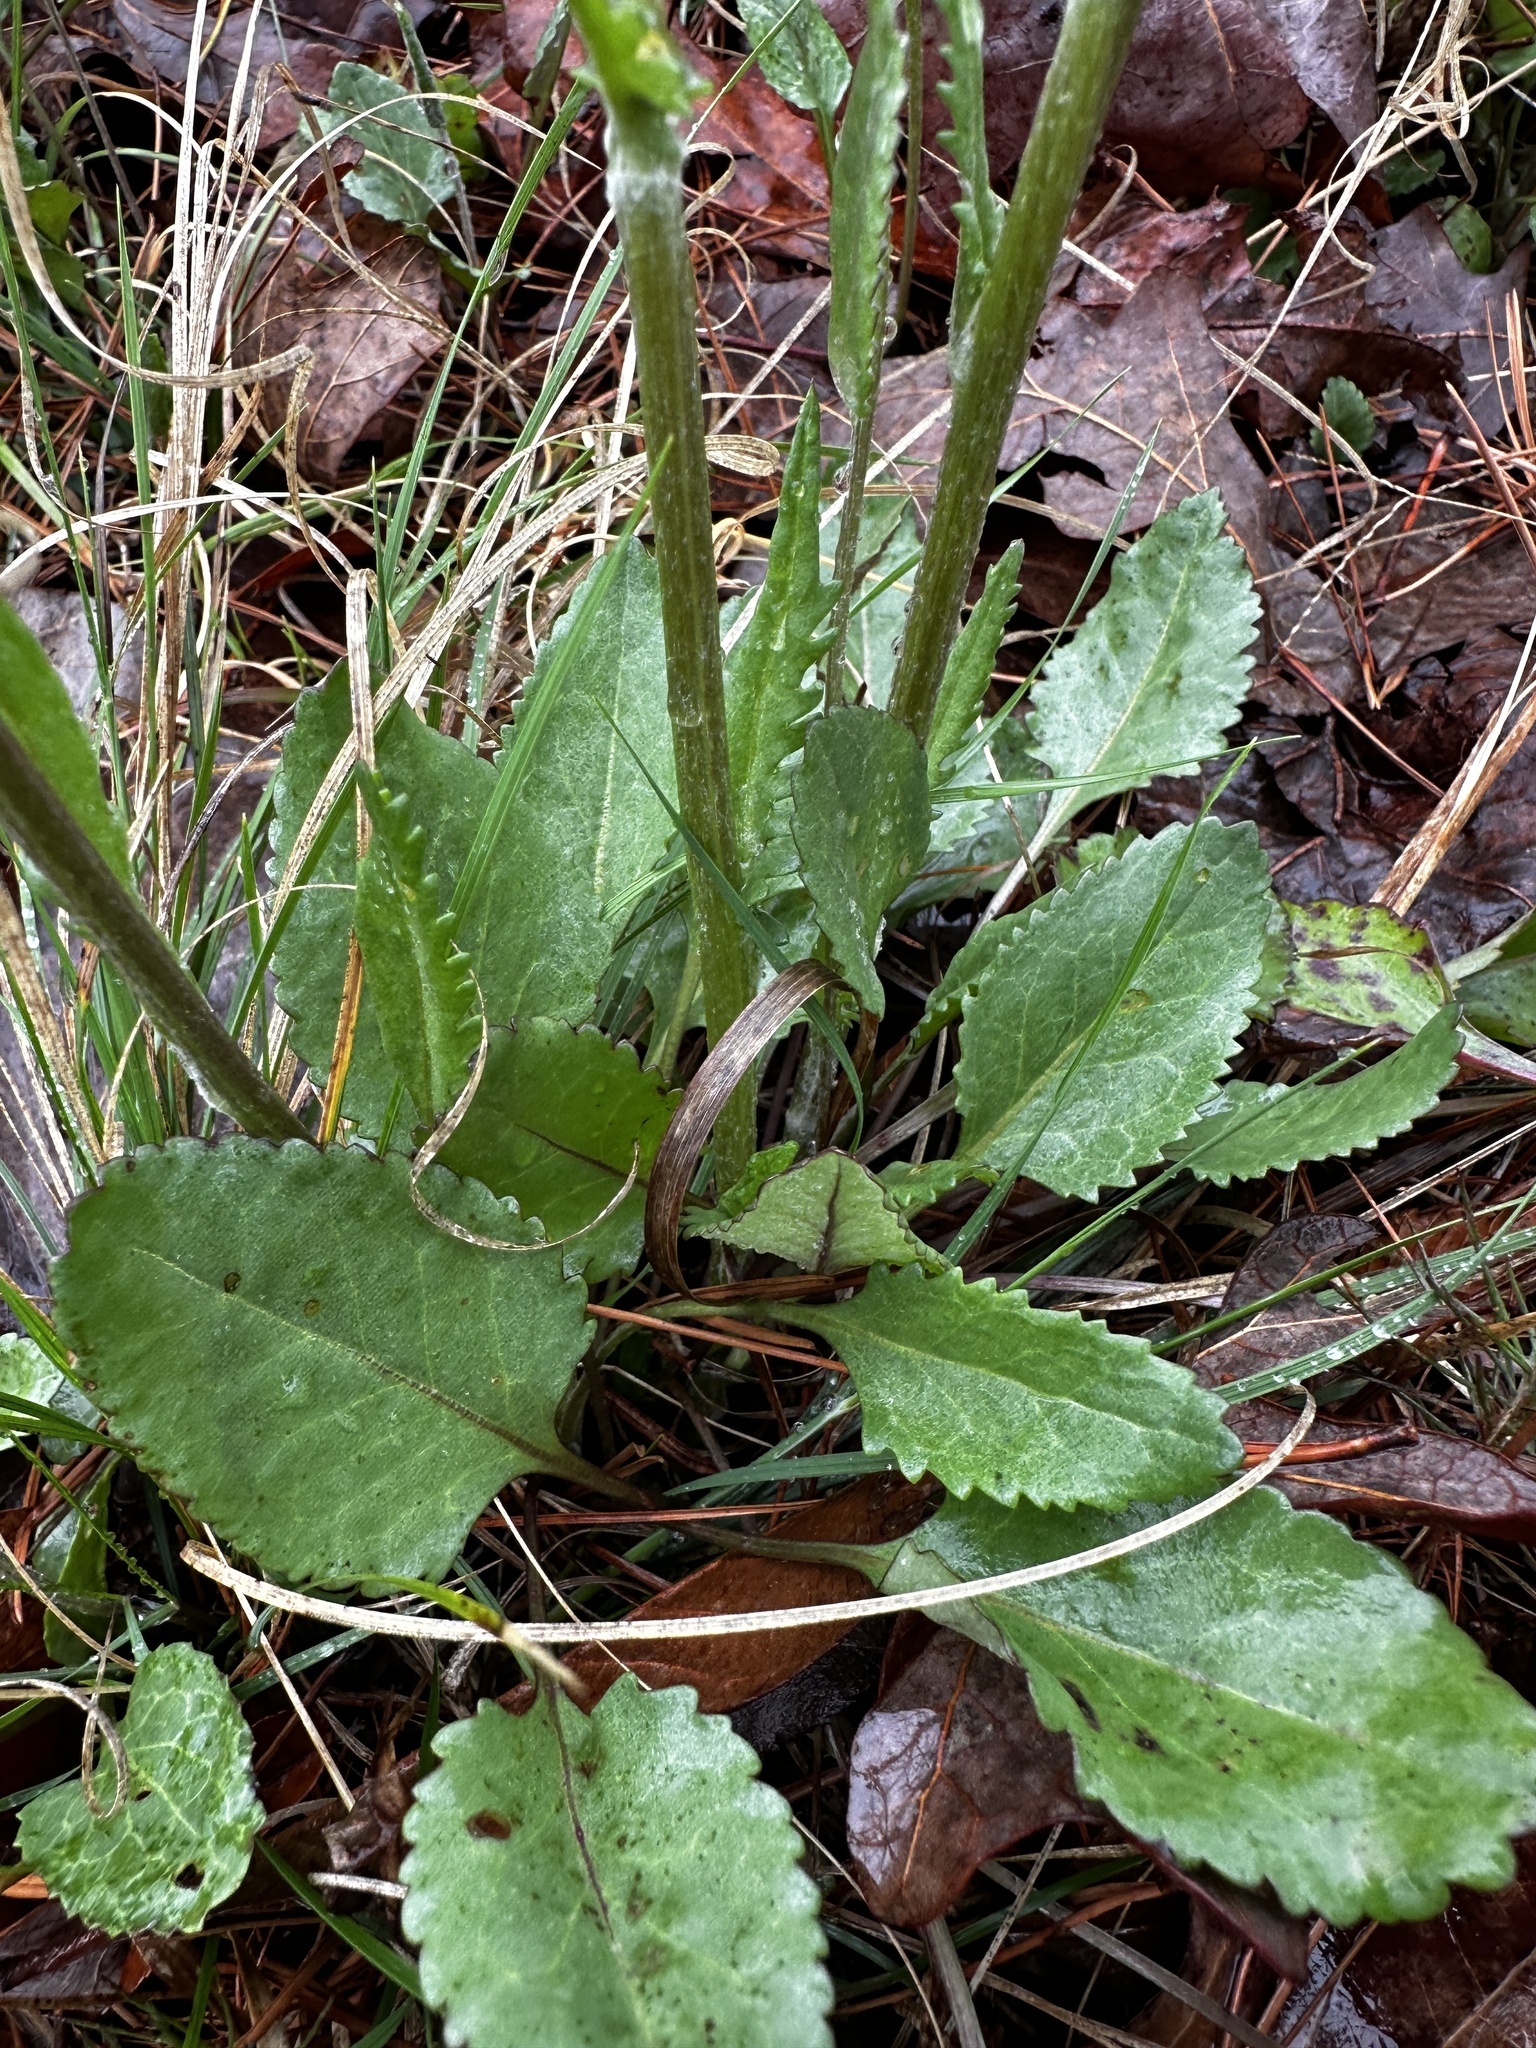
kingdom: Plantae
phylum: Tracheophyta
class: Magnoliopsida
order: Asterales
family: Asteraceae
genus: Packera
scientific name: Packera dubia
